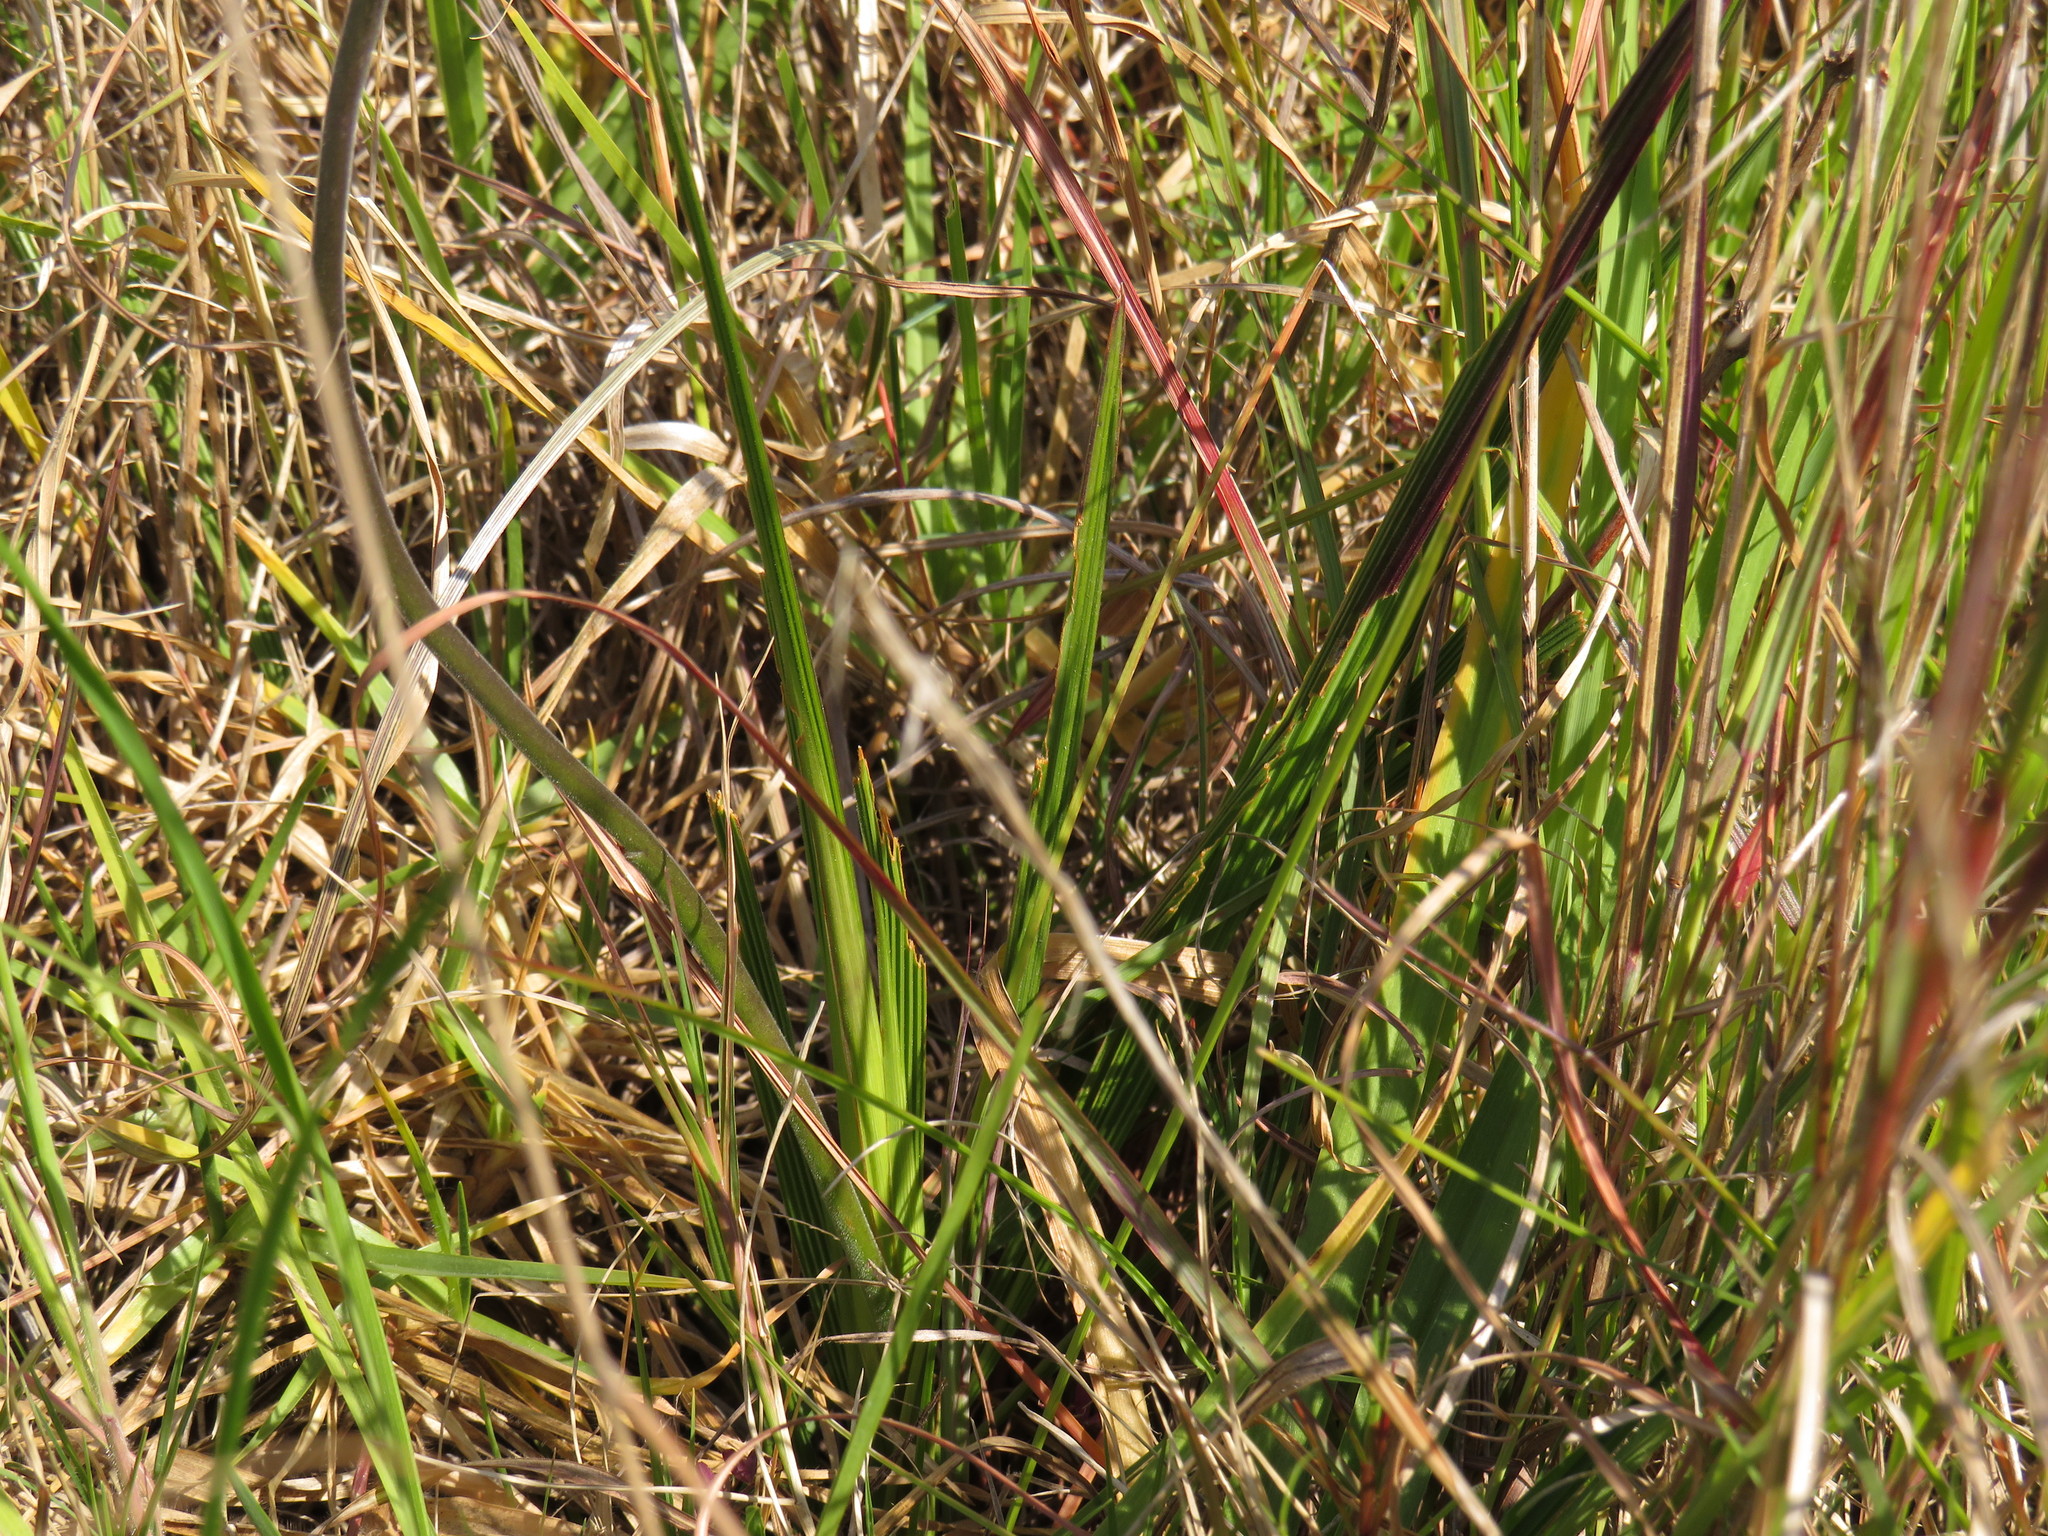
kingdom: Plantae
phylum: Tracheophyta
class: Liliopsida
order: Asparagales
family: Iridaceae
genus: Babiana
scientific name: Babiana angustifolia
